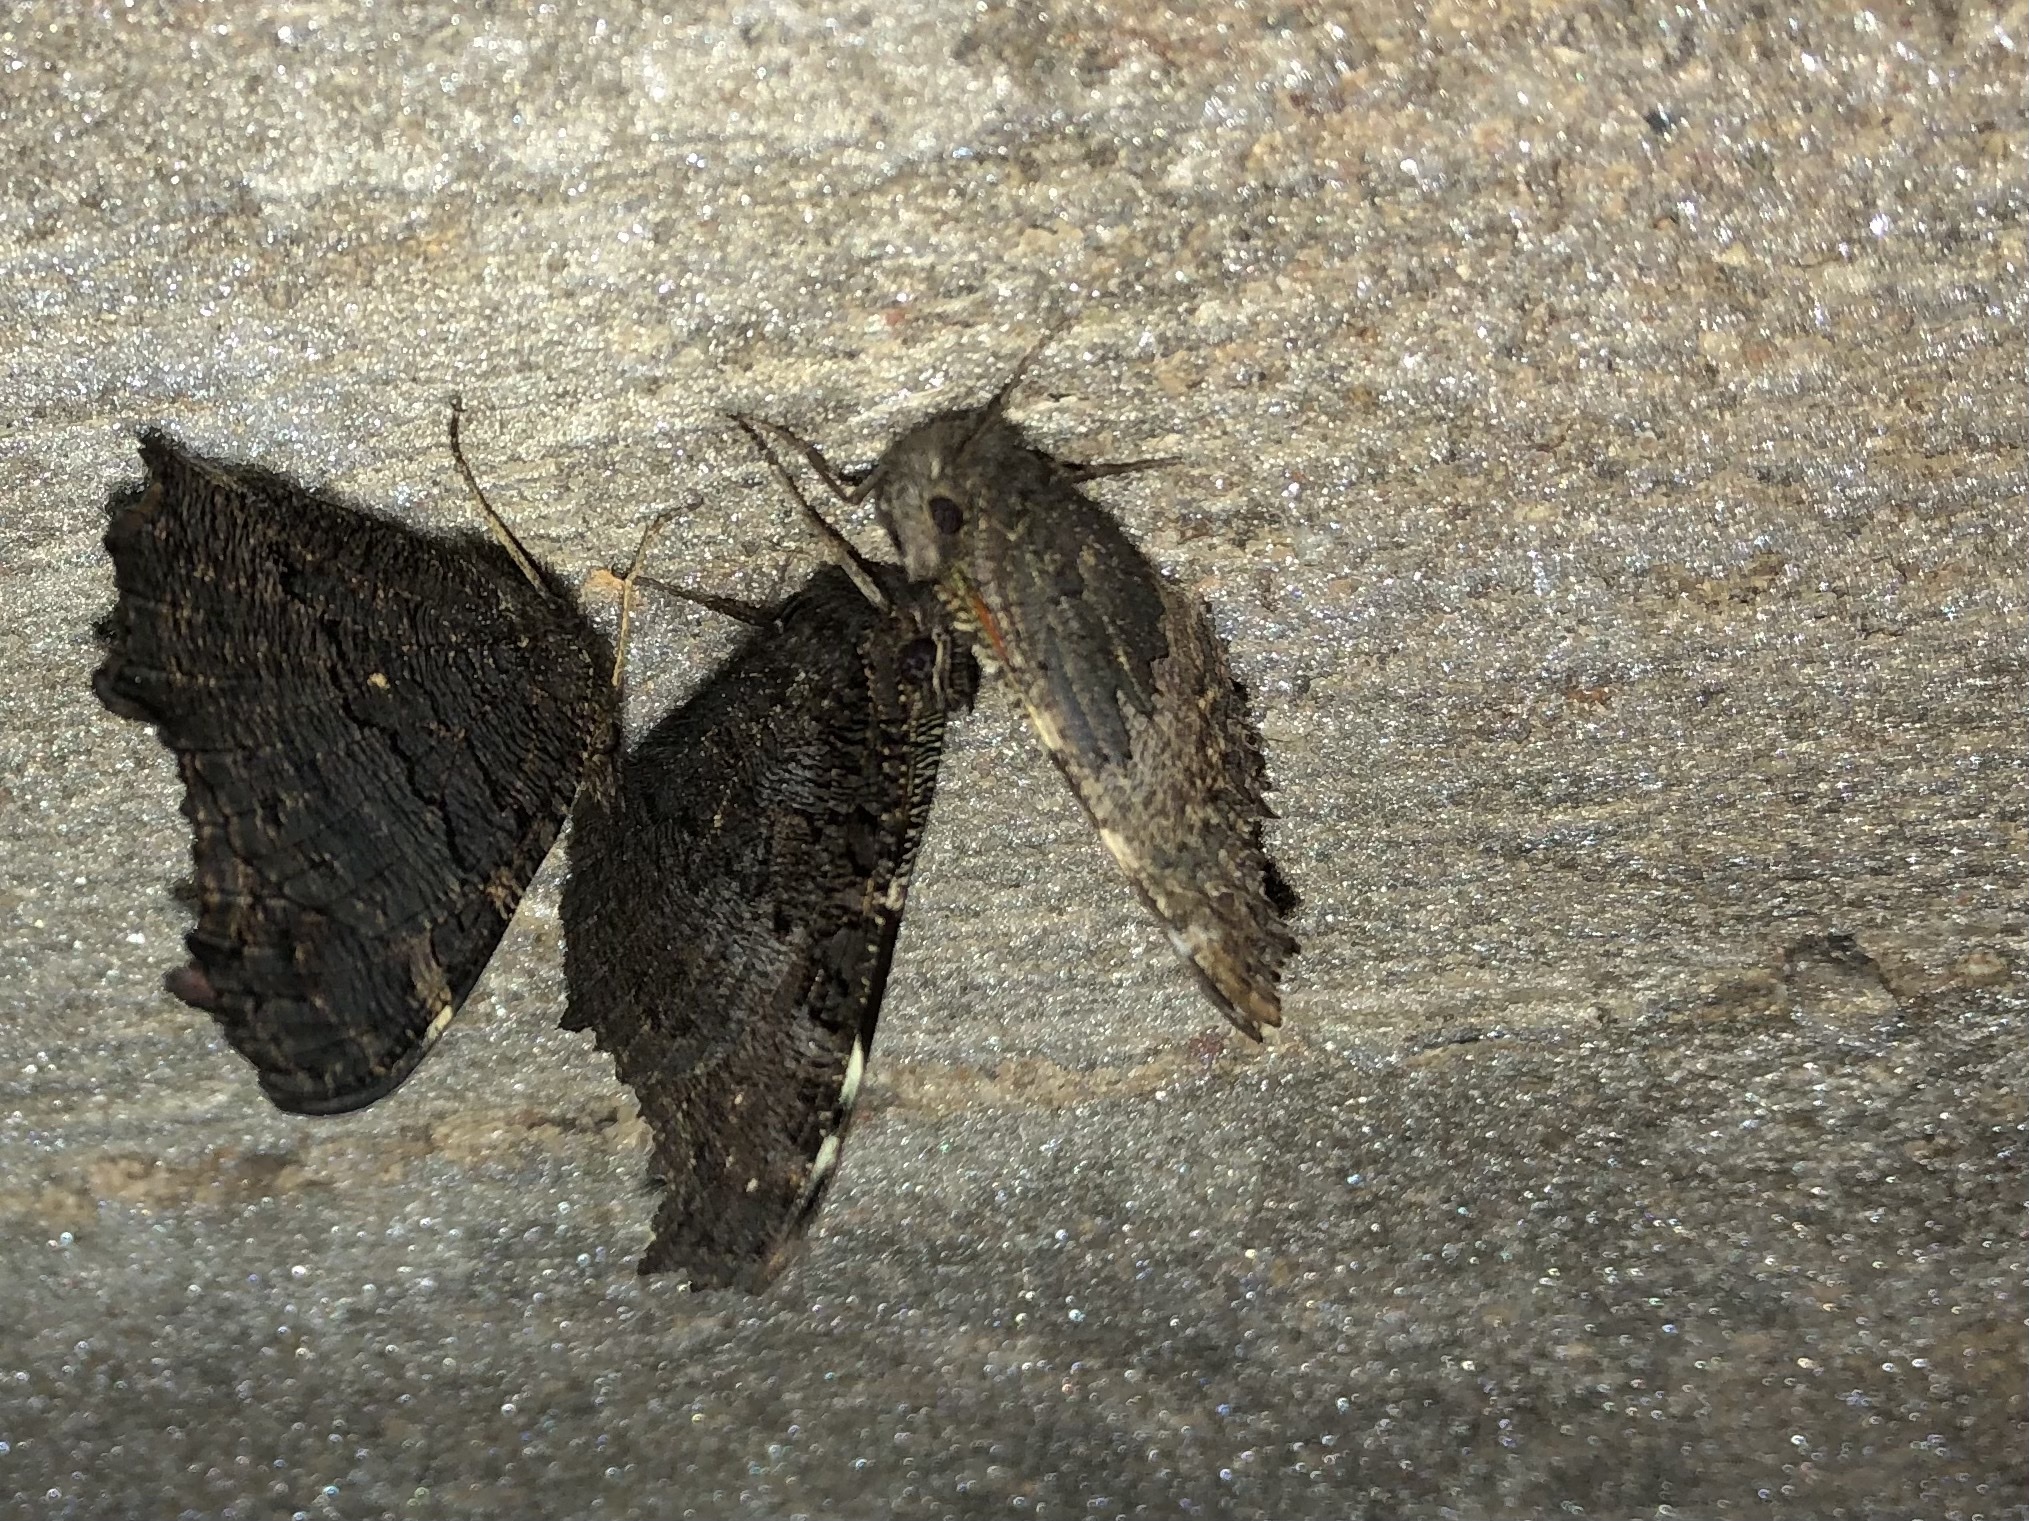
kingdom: Animalia
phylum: Arthropoda
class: Insecta
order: Lepidoptera
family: Nymphalidae
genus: Aglais
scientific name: Aglais urticae
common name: Small tortoiseshell
